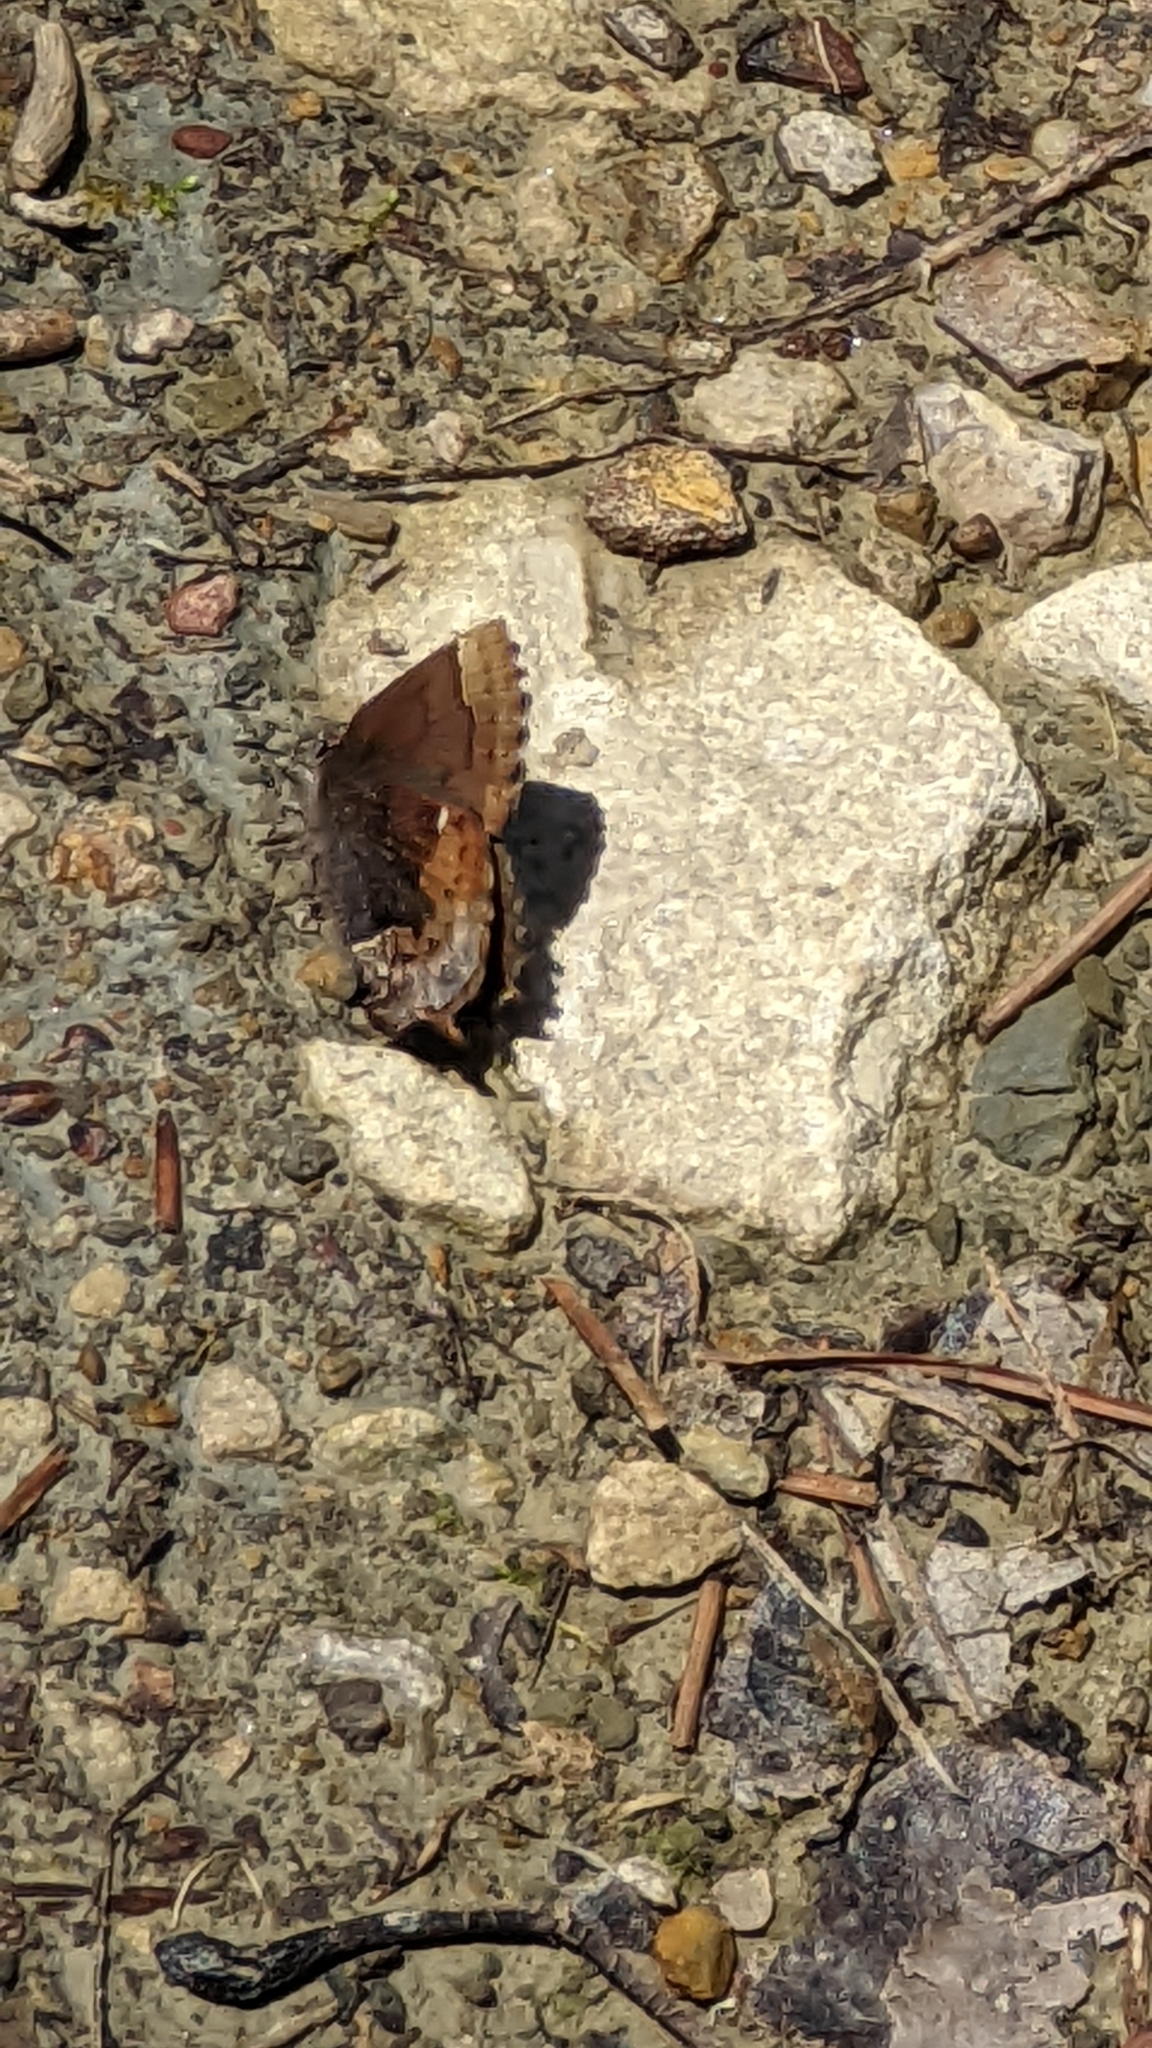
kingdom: Animalia
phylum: Arthropoda
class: Insecta
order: Lepidoptera
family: Lycaenidae
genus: Incisalia
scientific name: Incisalia henrici
